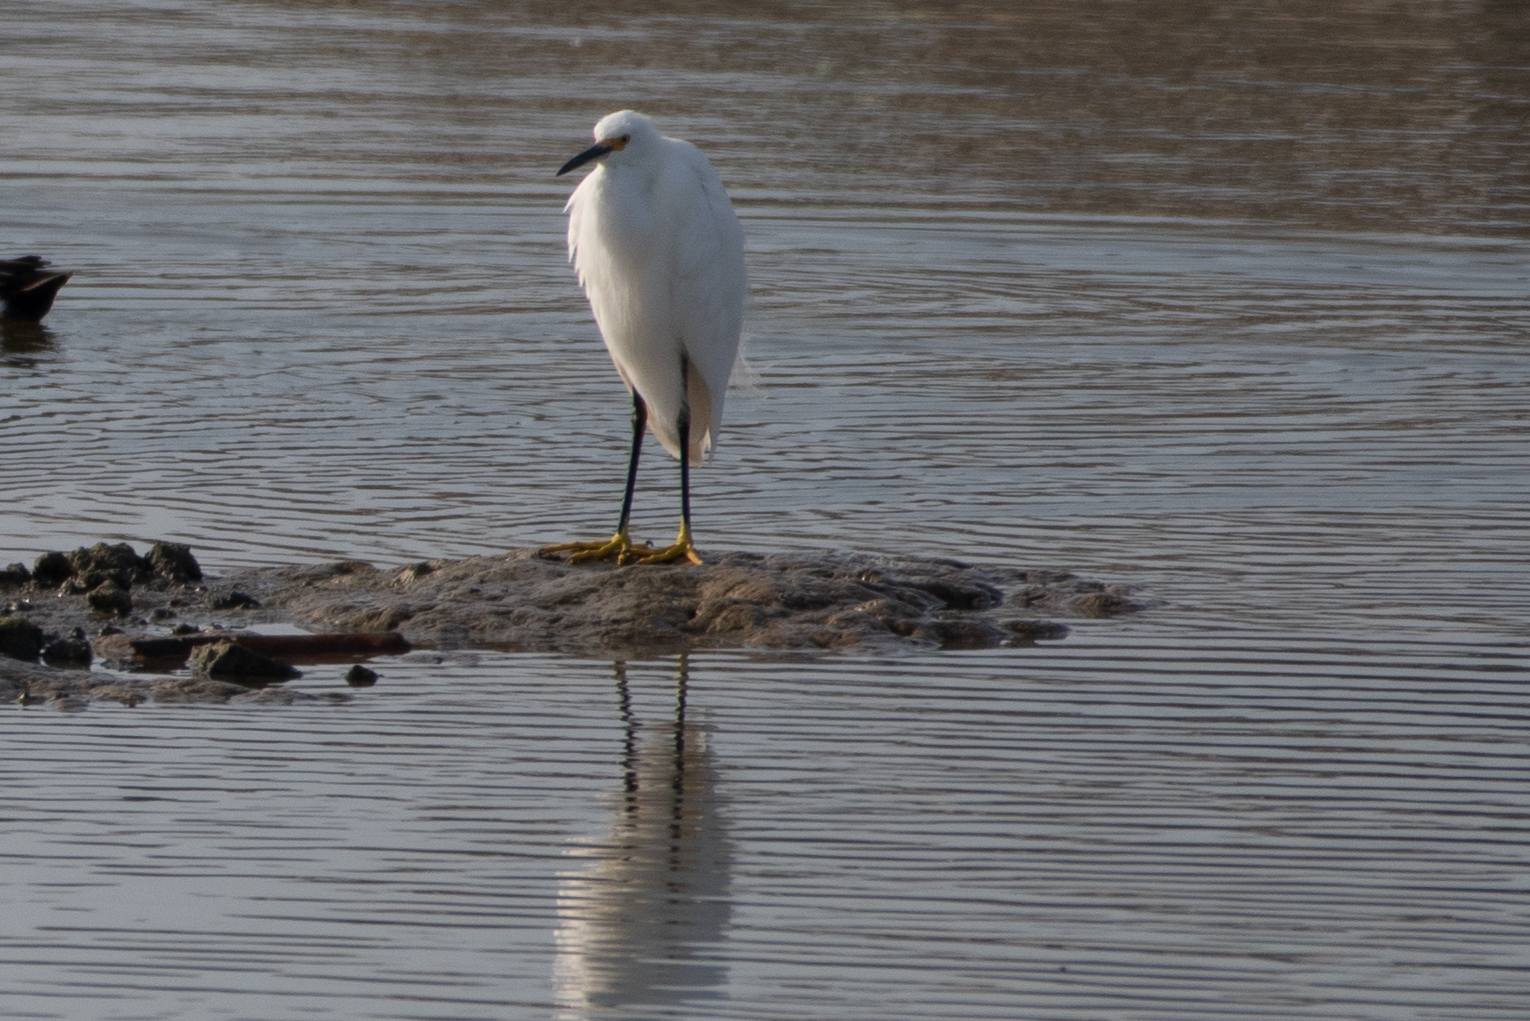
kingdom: Animalia
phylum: Chordata
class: Aves
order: Pelecaniformes
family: Ardeidae
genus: Egretta
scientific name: Egretta thula
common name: Snowy egret
